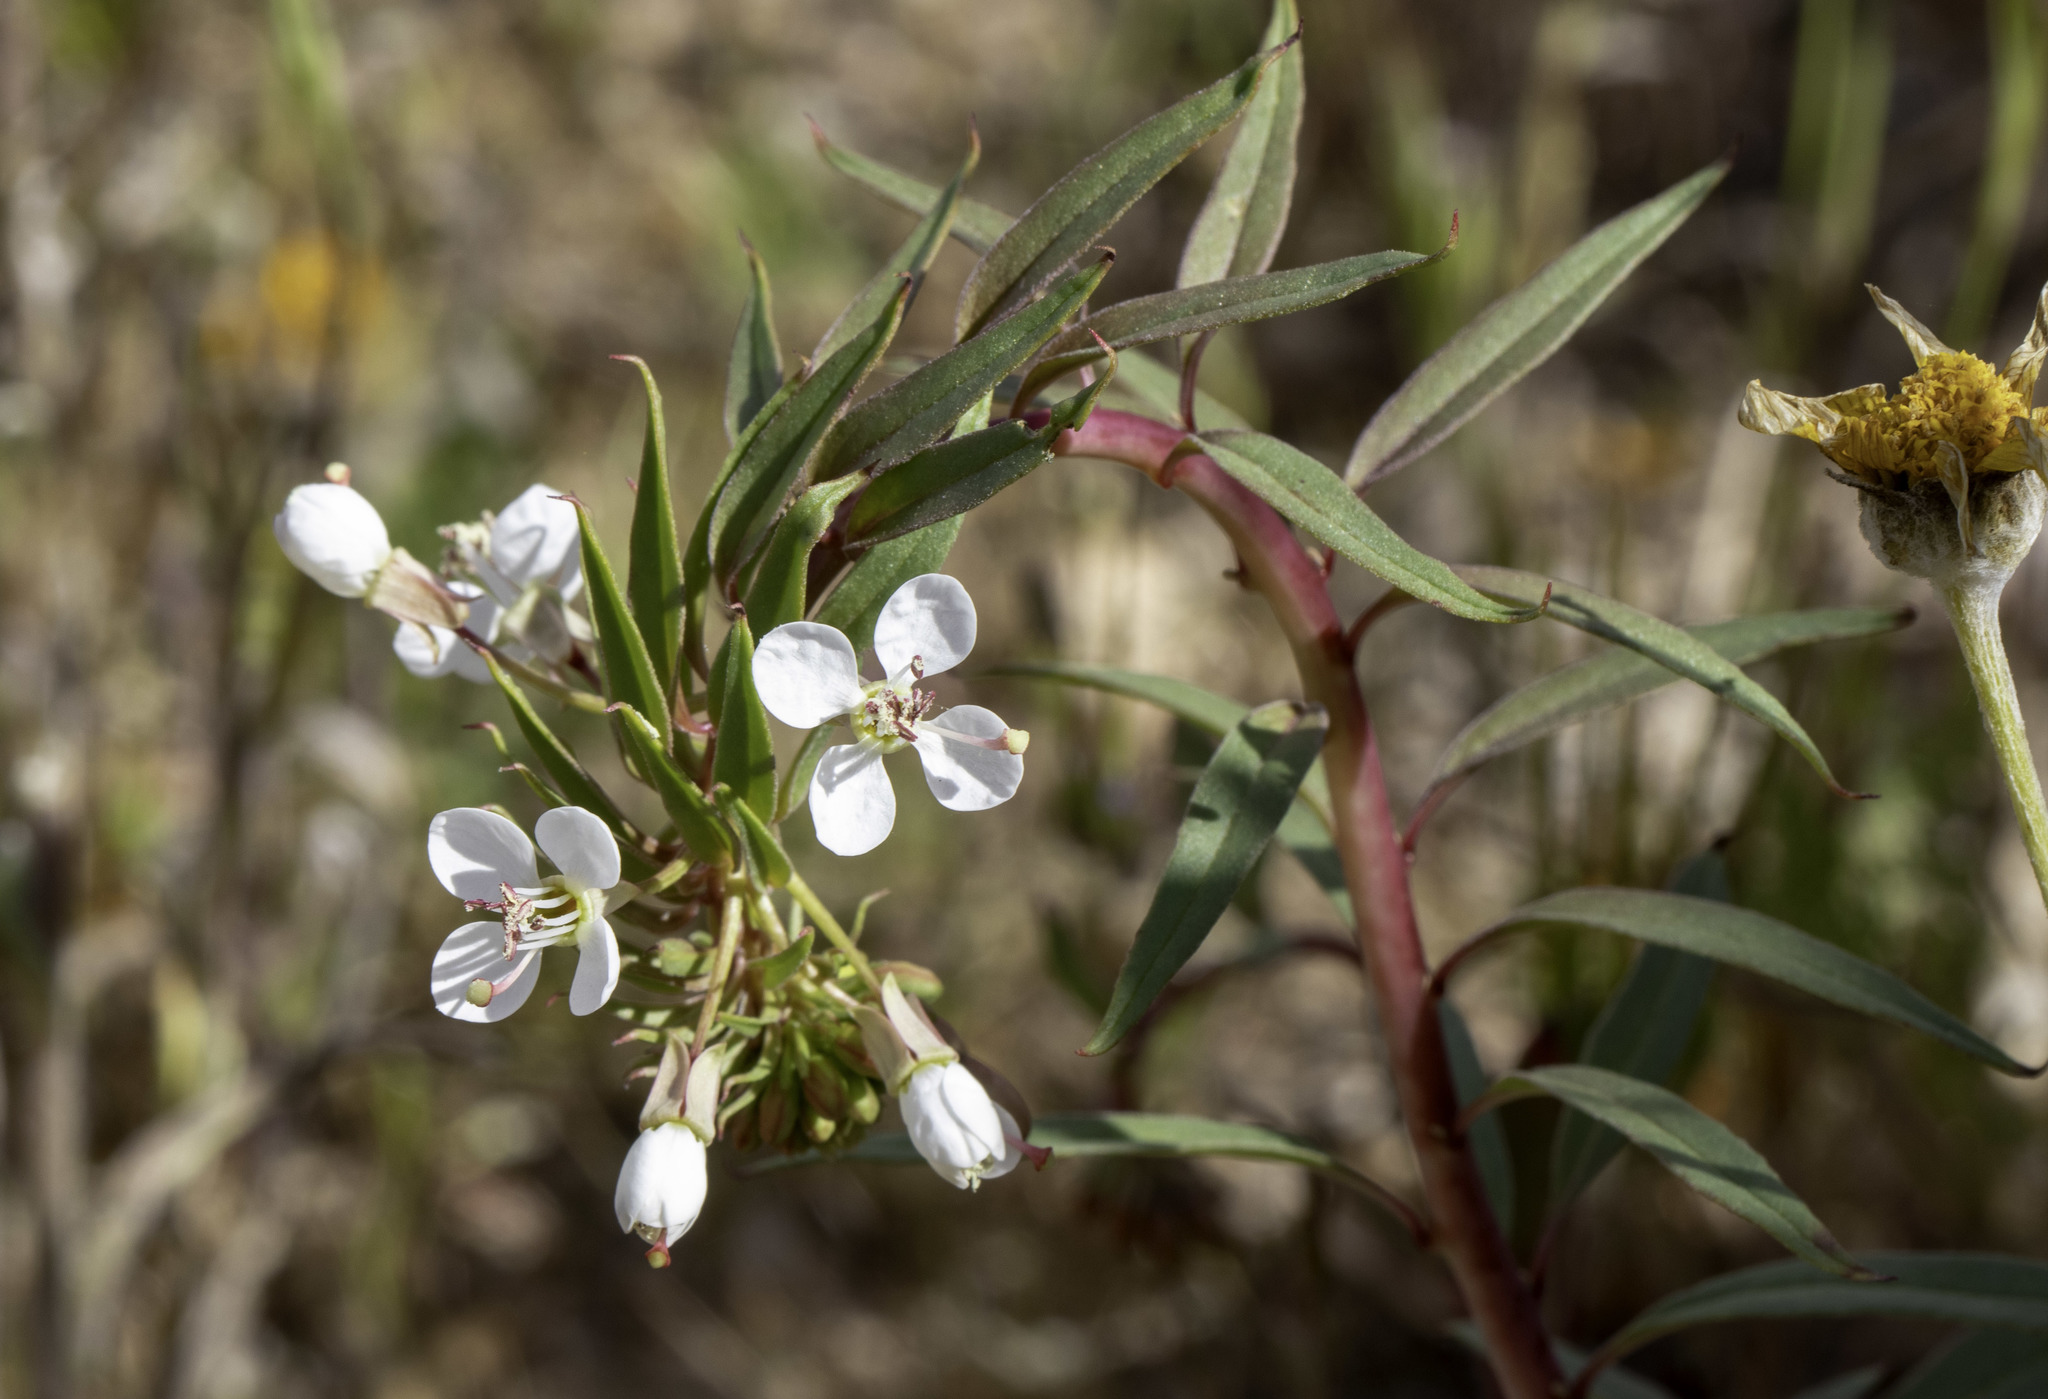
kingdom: Plantae
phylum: Tracheophyta
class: Magnoliopsida
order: Myrtales
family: Onagraceae
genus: Eremothera
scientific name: Eremothera boothii
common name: Booth's evening primrose
